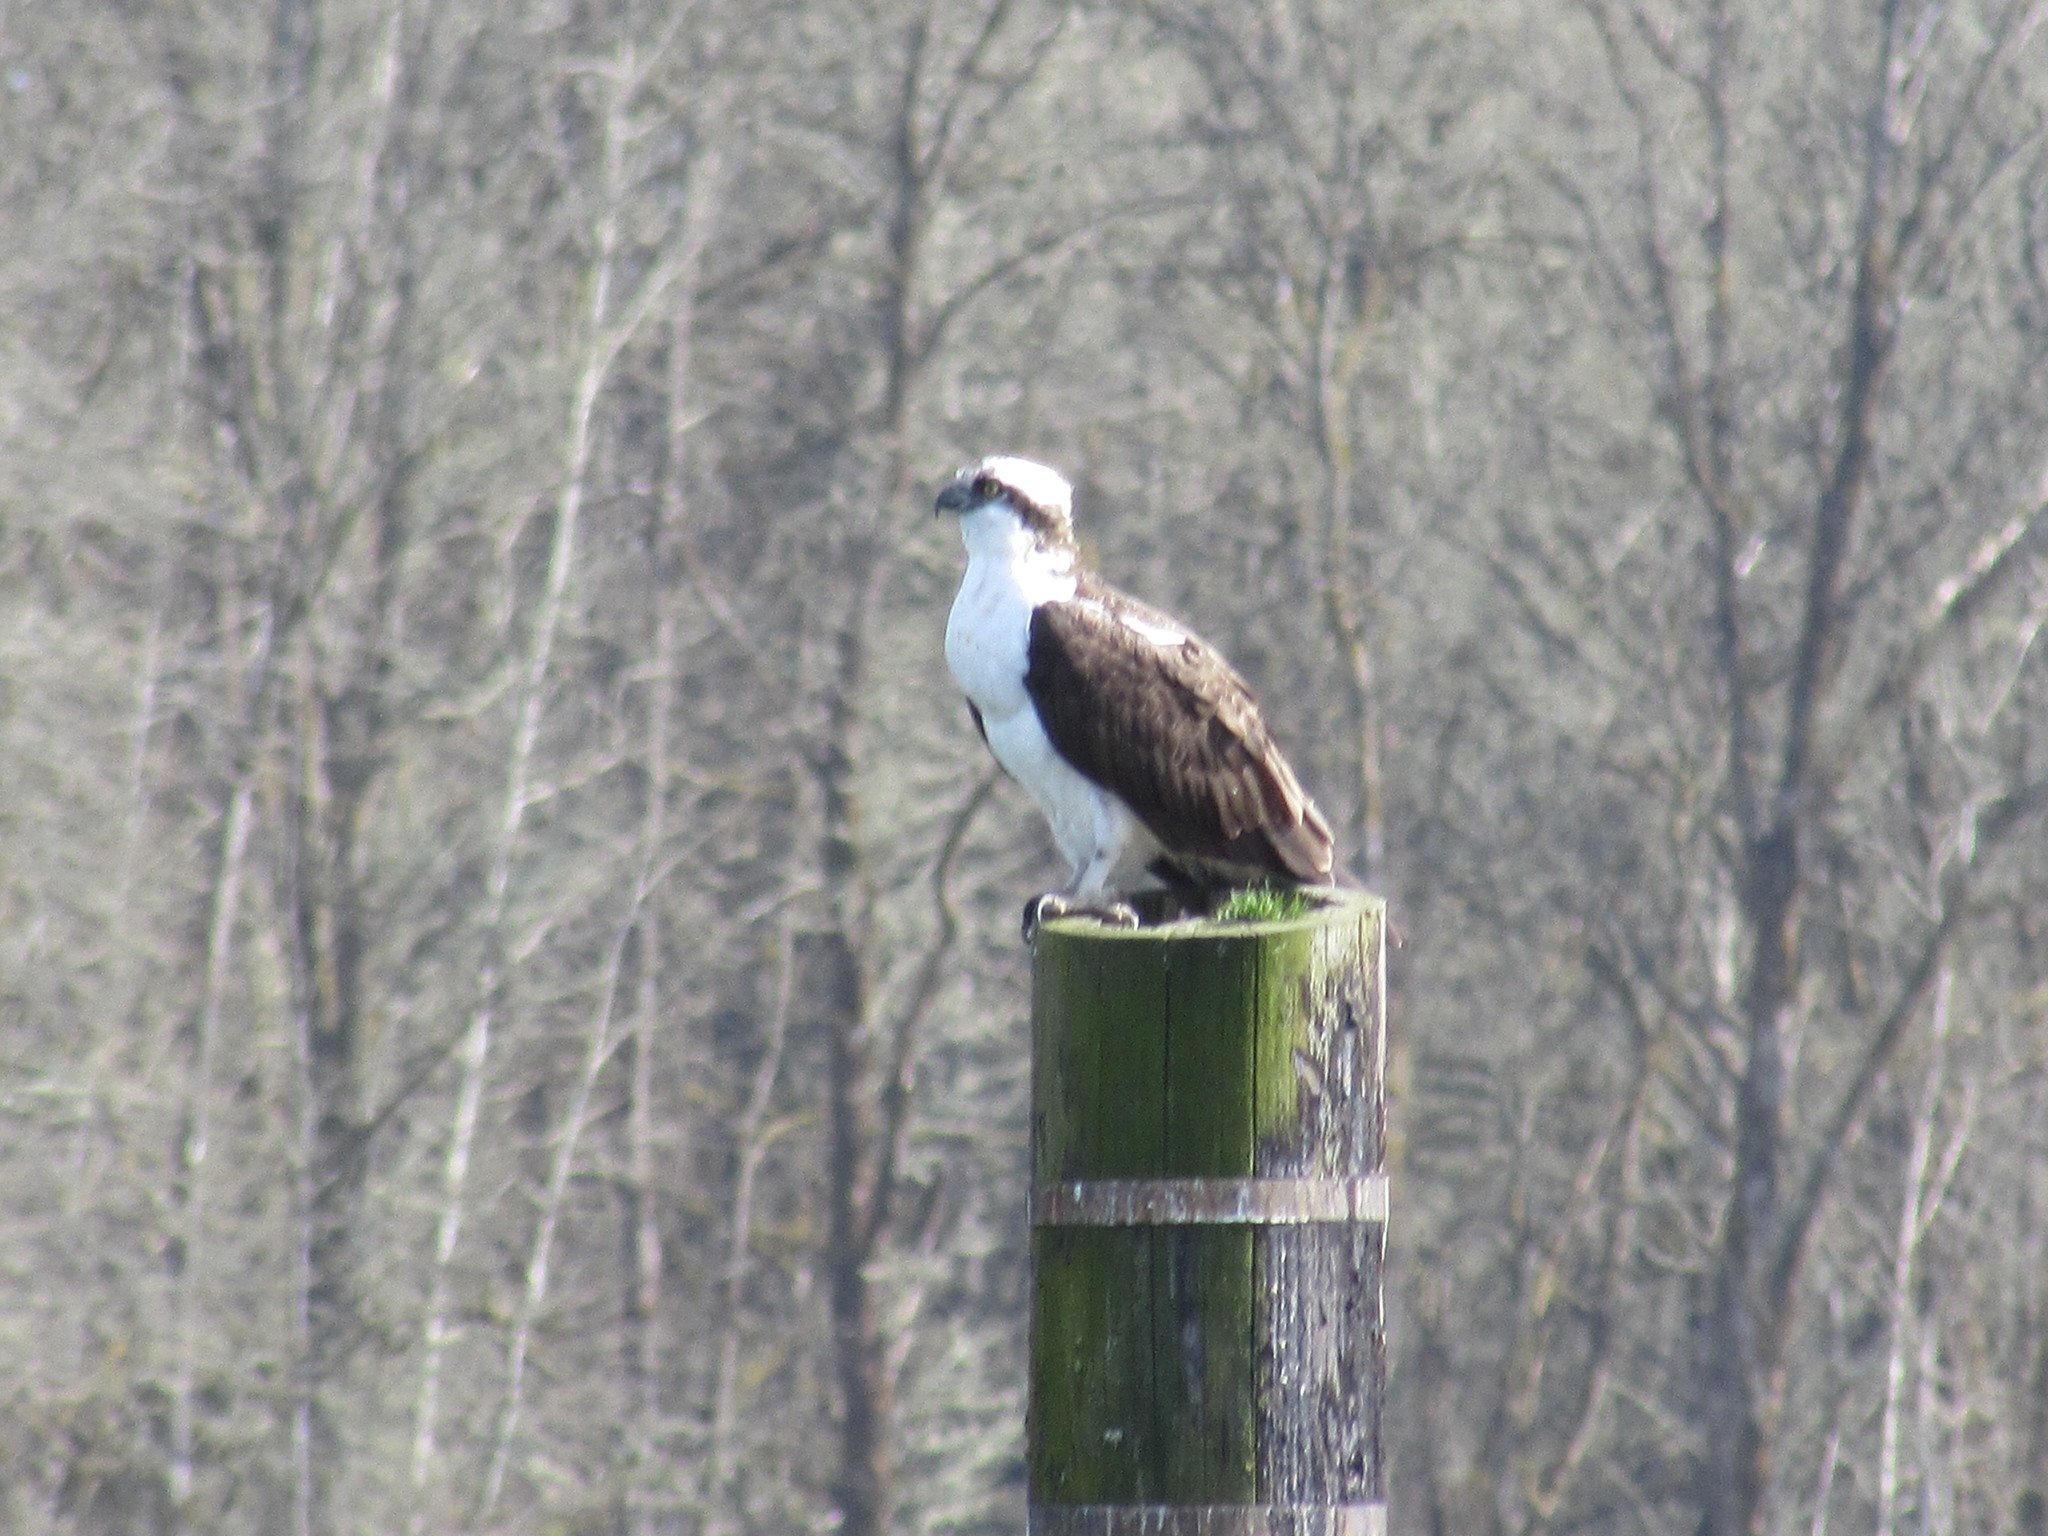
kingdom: Animalia
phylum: Chordata
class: Aves
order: Accipitriformes
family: Pandionidae
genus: Pandion
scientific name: Pandion haliaetus
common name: Osprey
